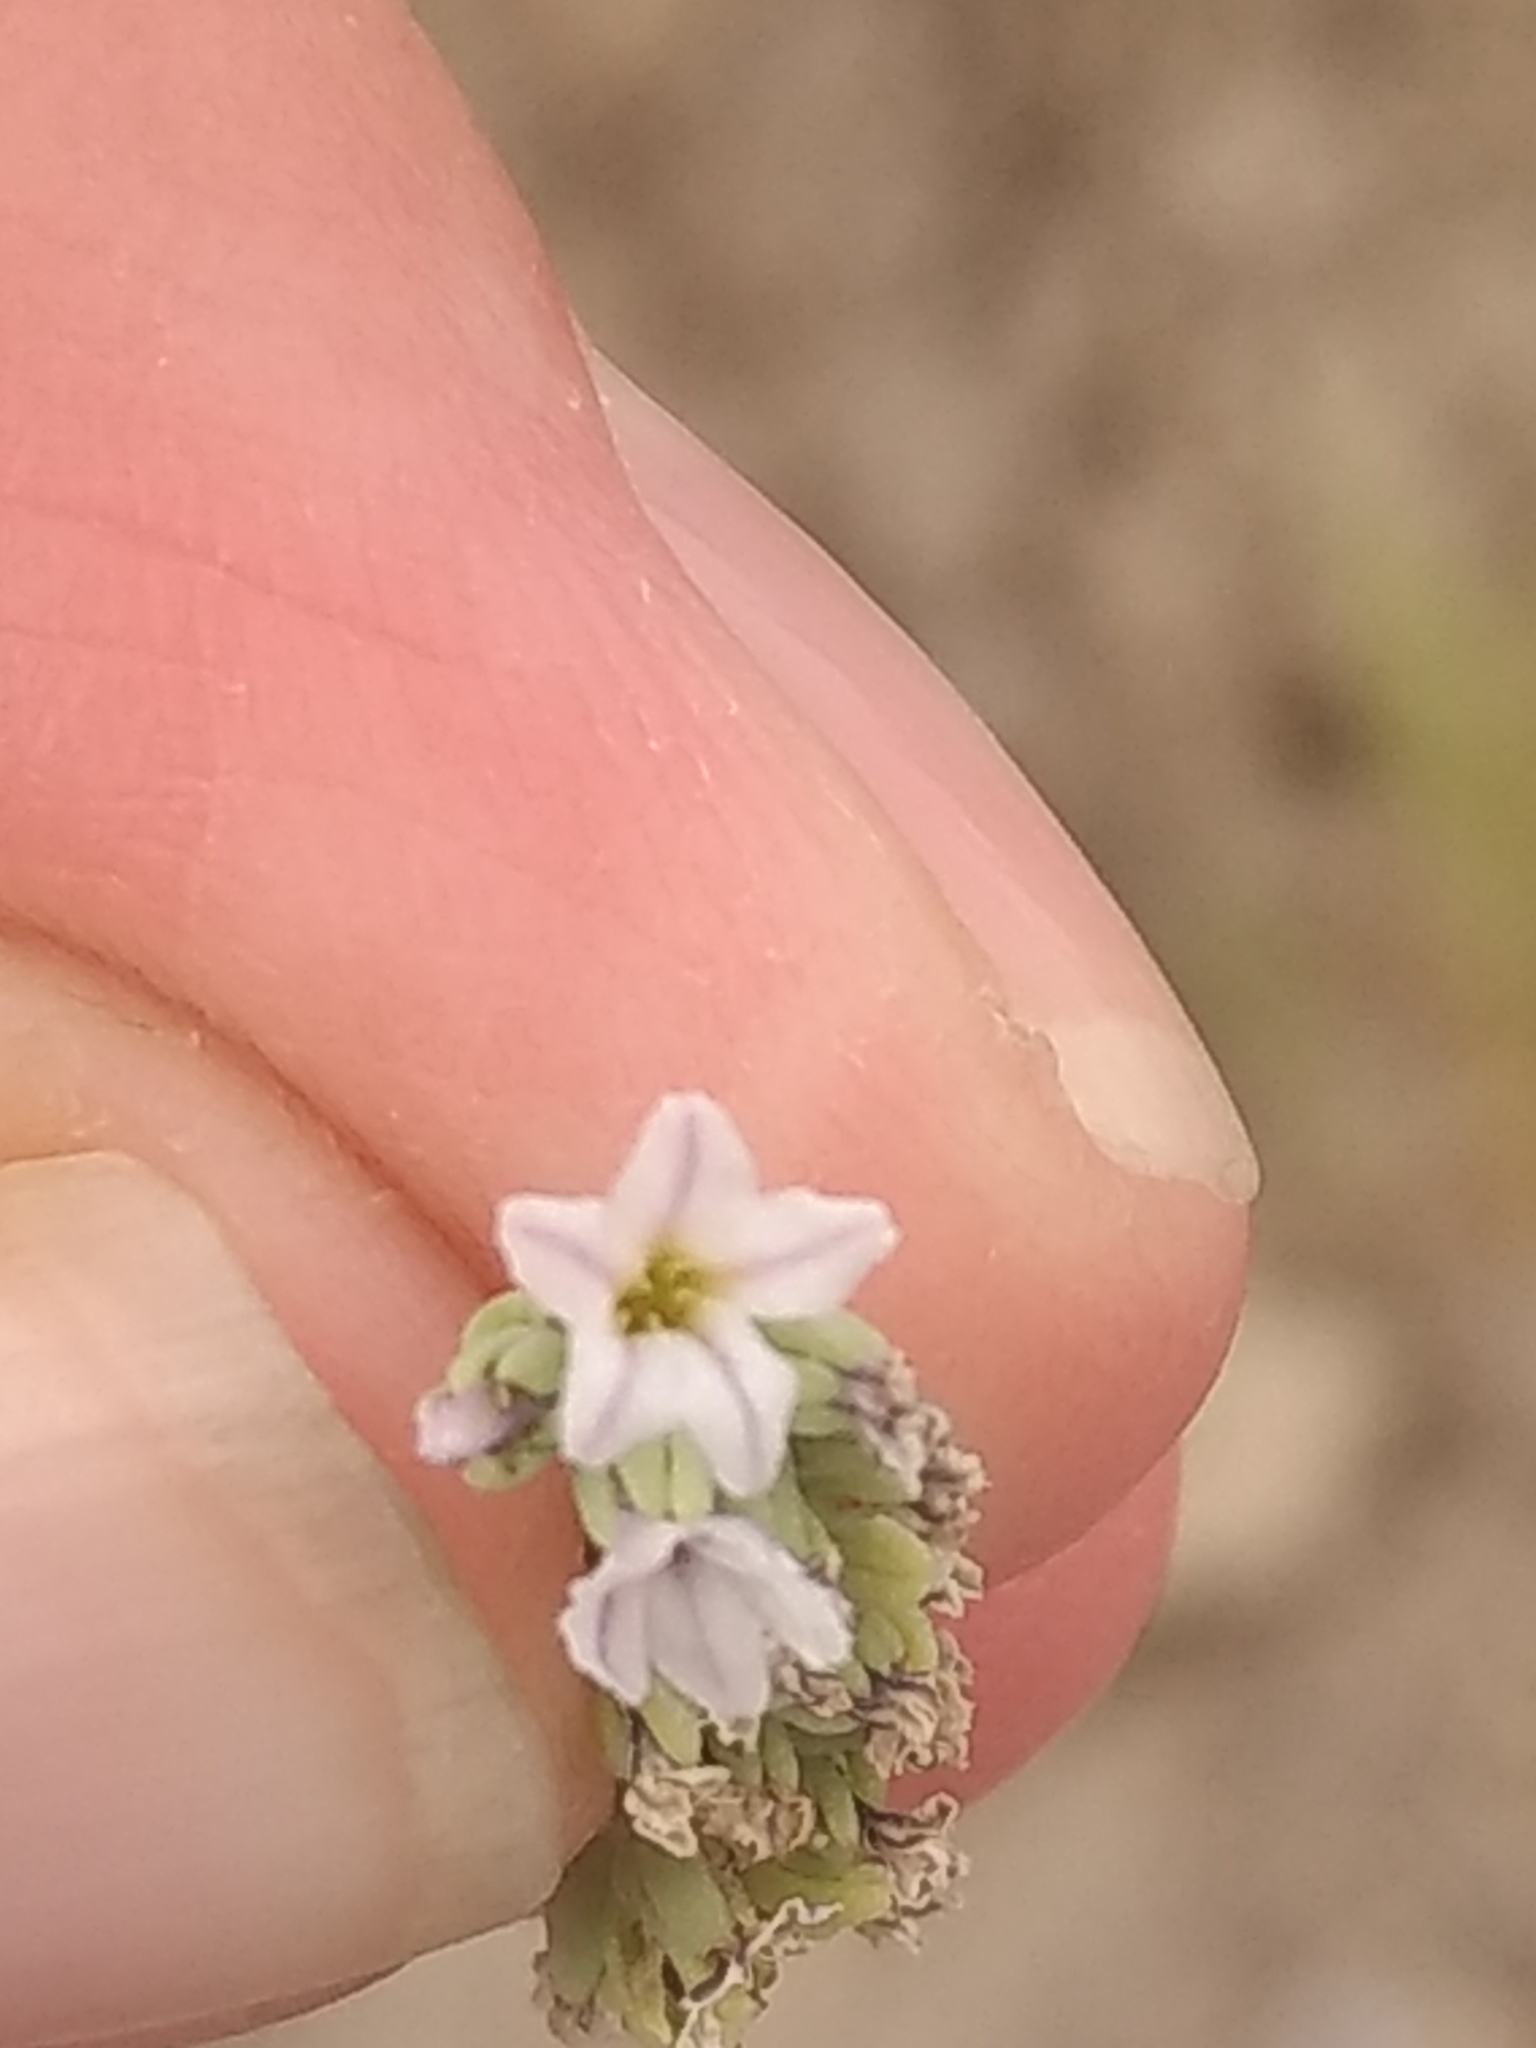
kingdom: Plantae
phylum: Tracheophyta
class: Magnoliopsida
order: Boraginales
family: Heliotropiaceae
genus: Heliotropium
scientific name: Heliotropium curassavicum
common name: Seaside heliotrope
